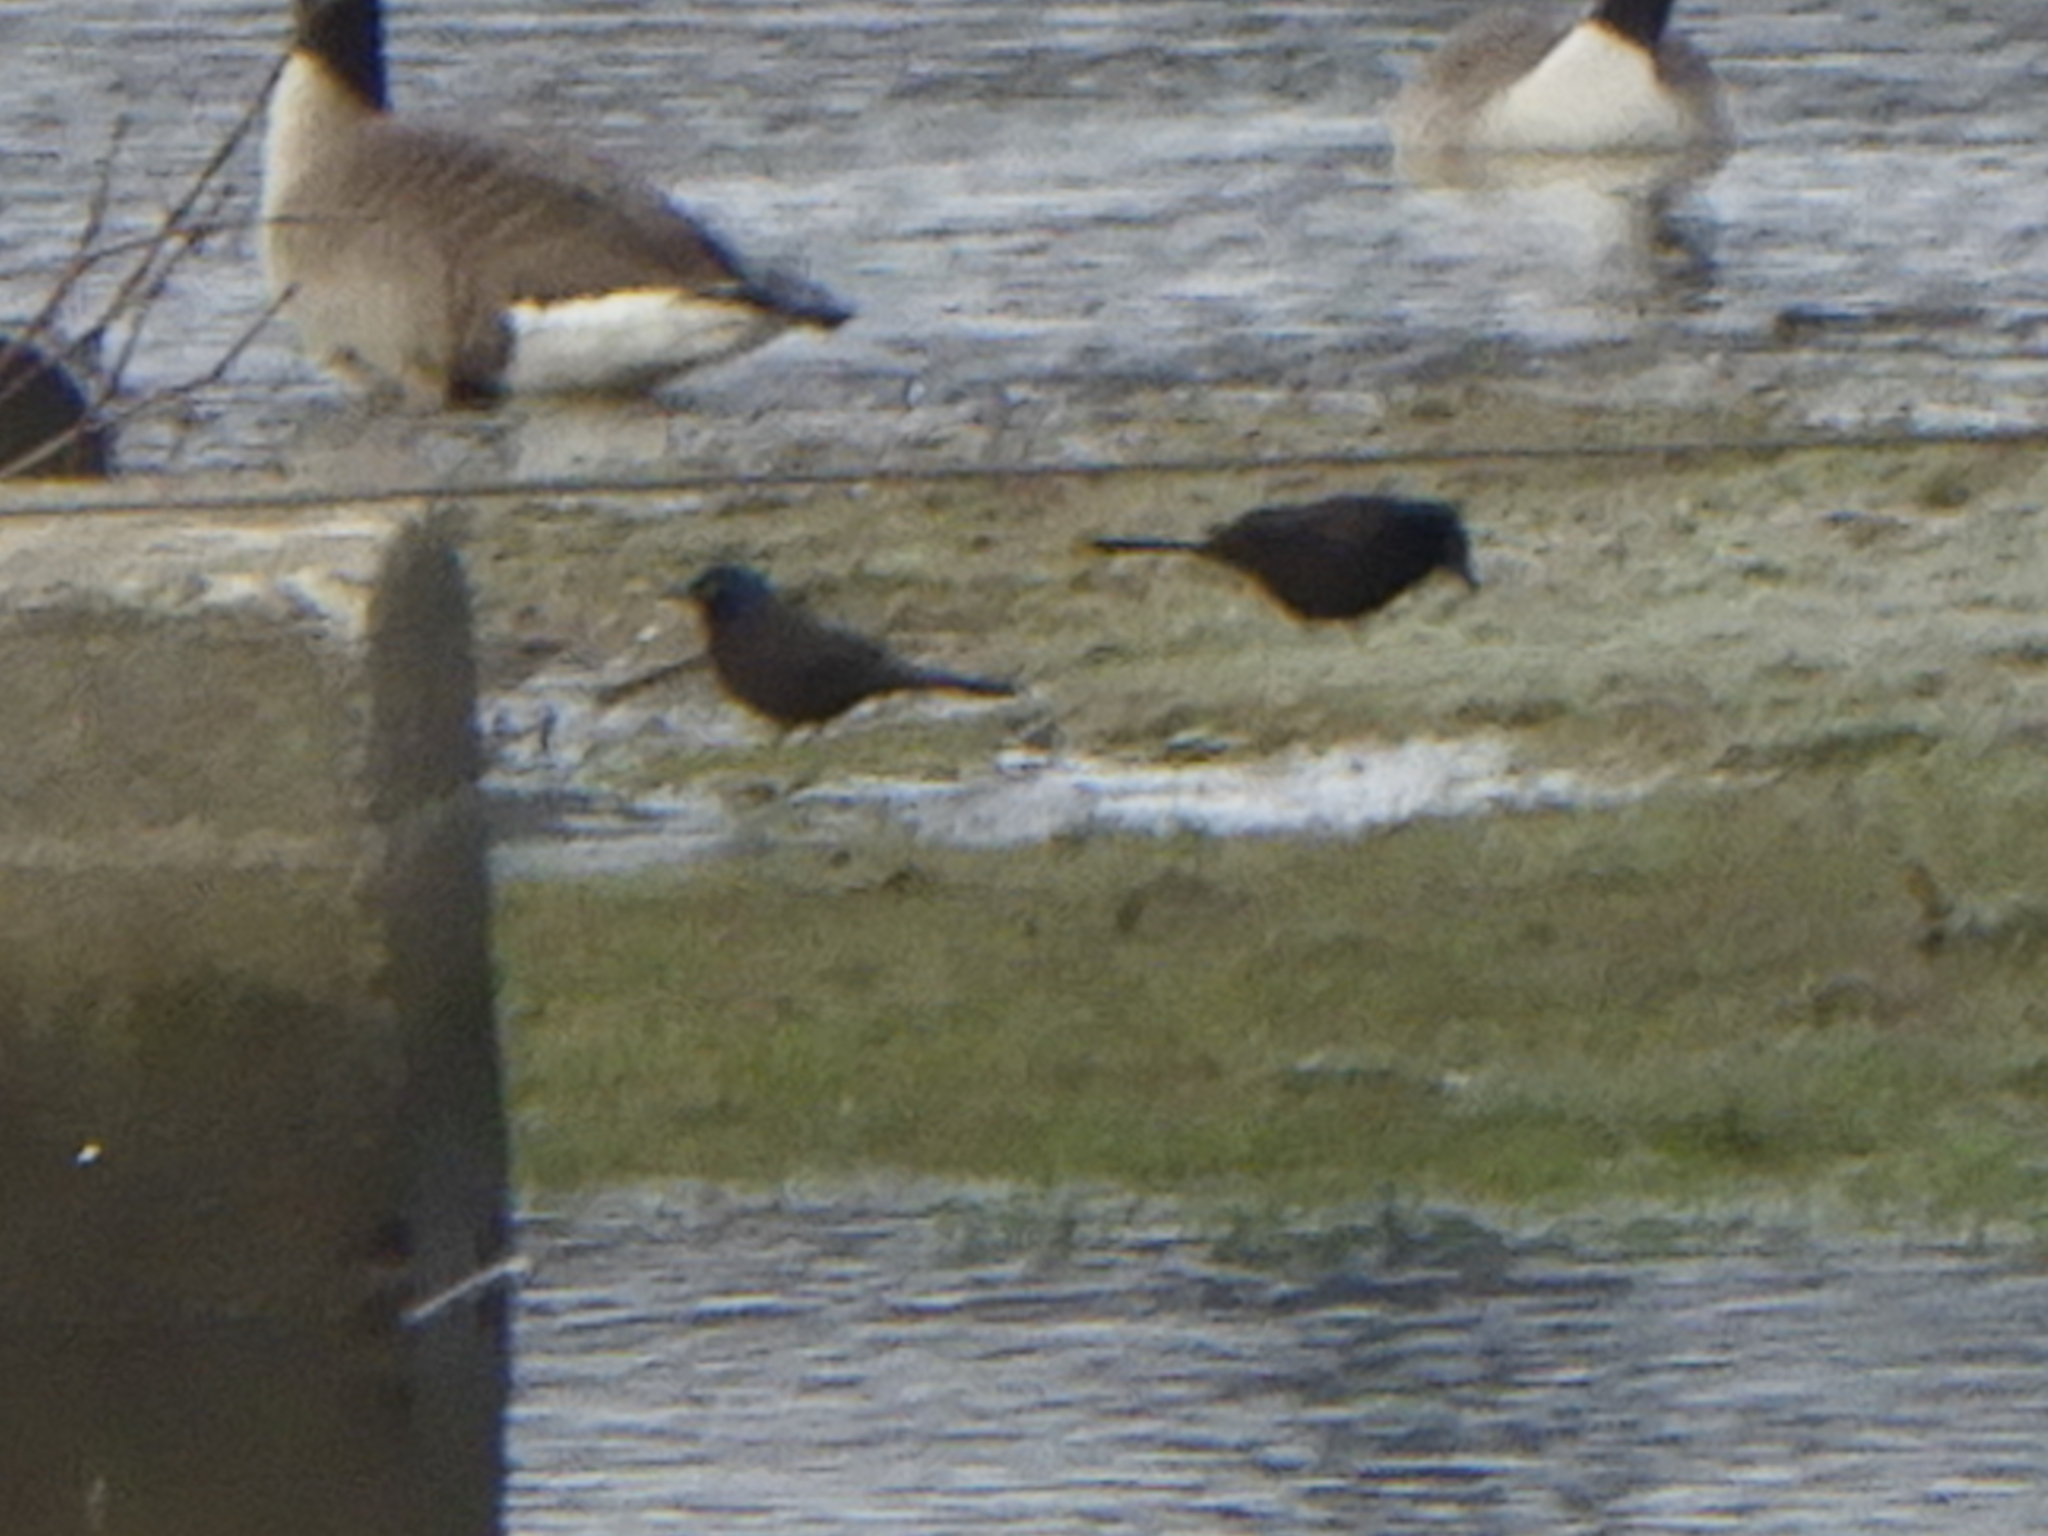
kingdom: Animalia
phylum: Chordata
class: Aves
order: Passeriformes
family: Icteridae
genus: Quiscalus
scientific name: Quiscalus quiscula
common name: Common grackle
